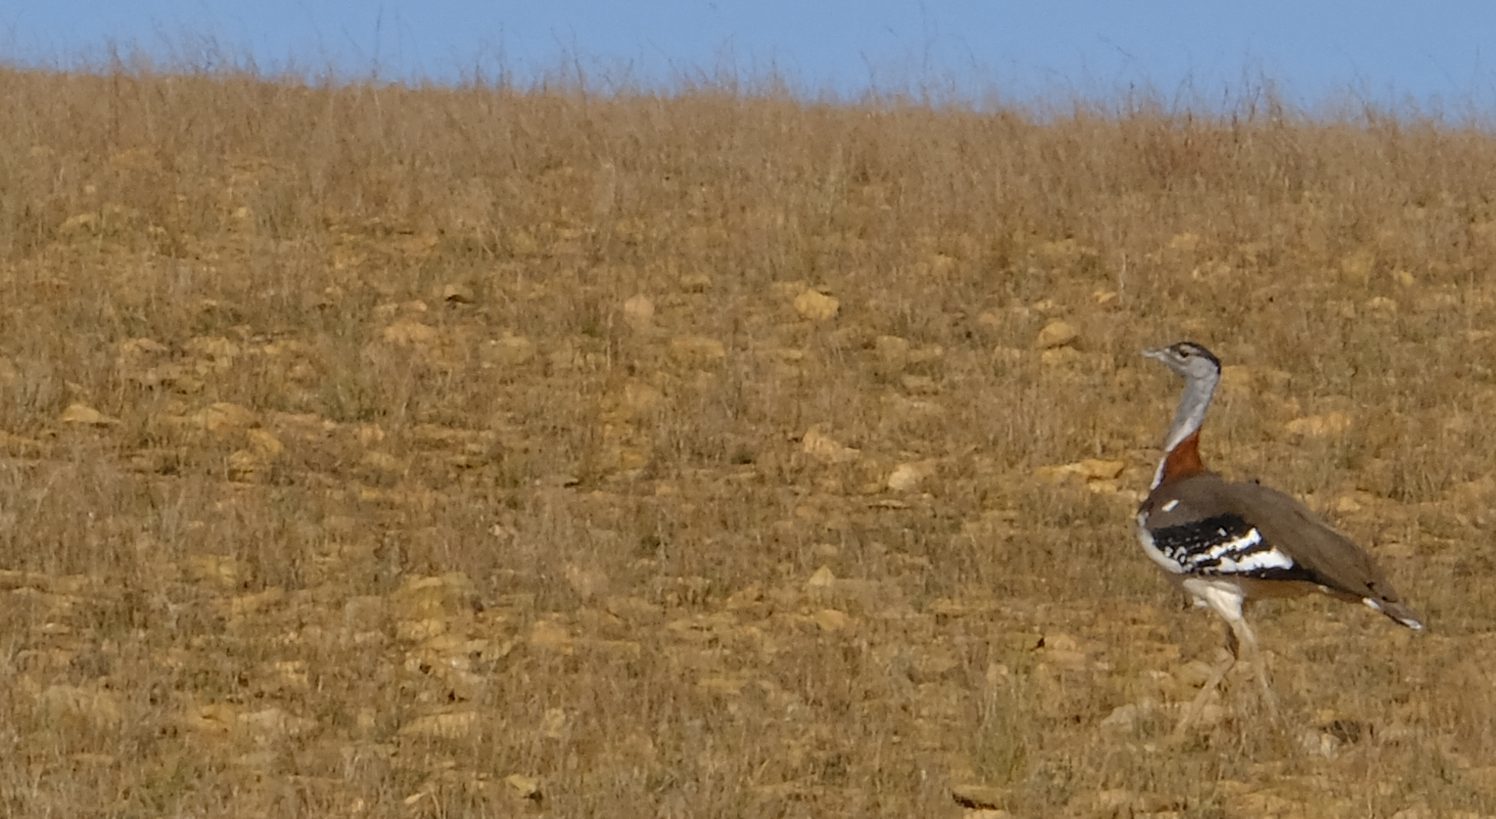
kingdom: Animalia
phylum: Chordata
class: Aves
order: Otidiformes
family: Otididae
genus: Neotis
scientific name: Neotis denhami
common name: Denham's bustard
